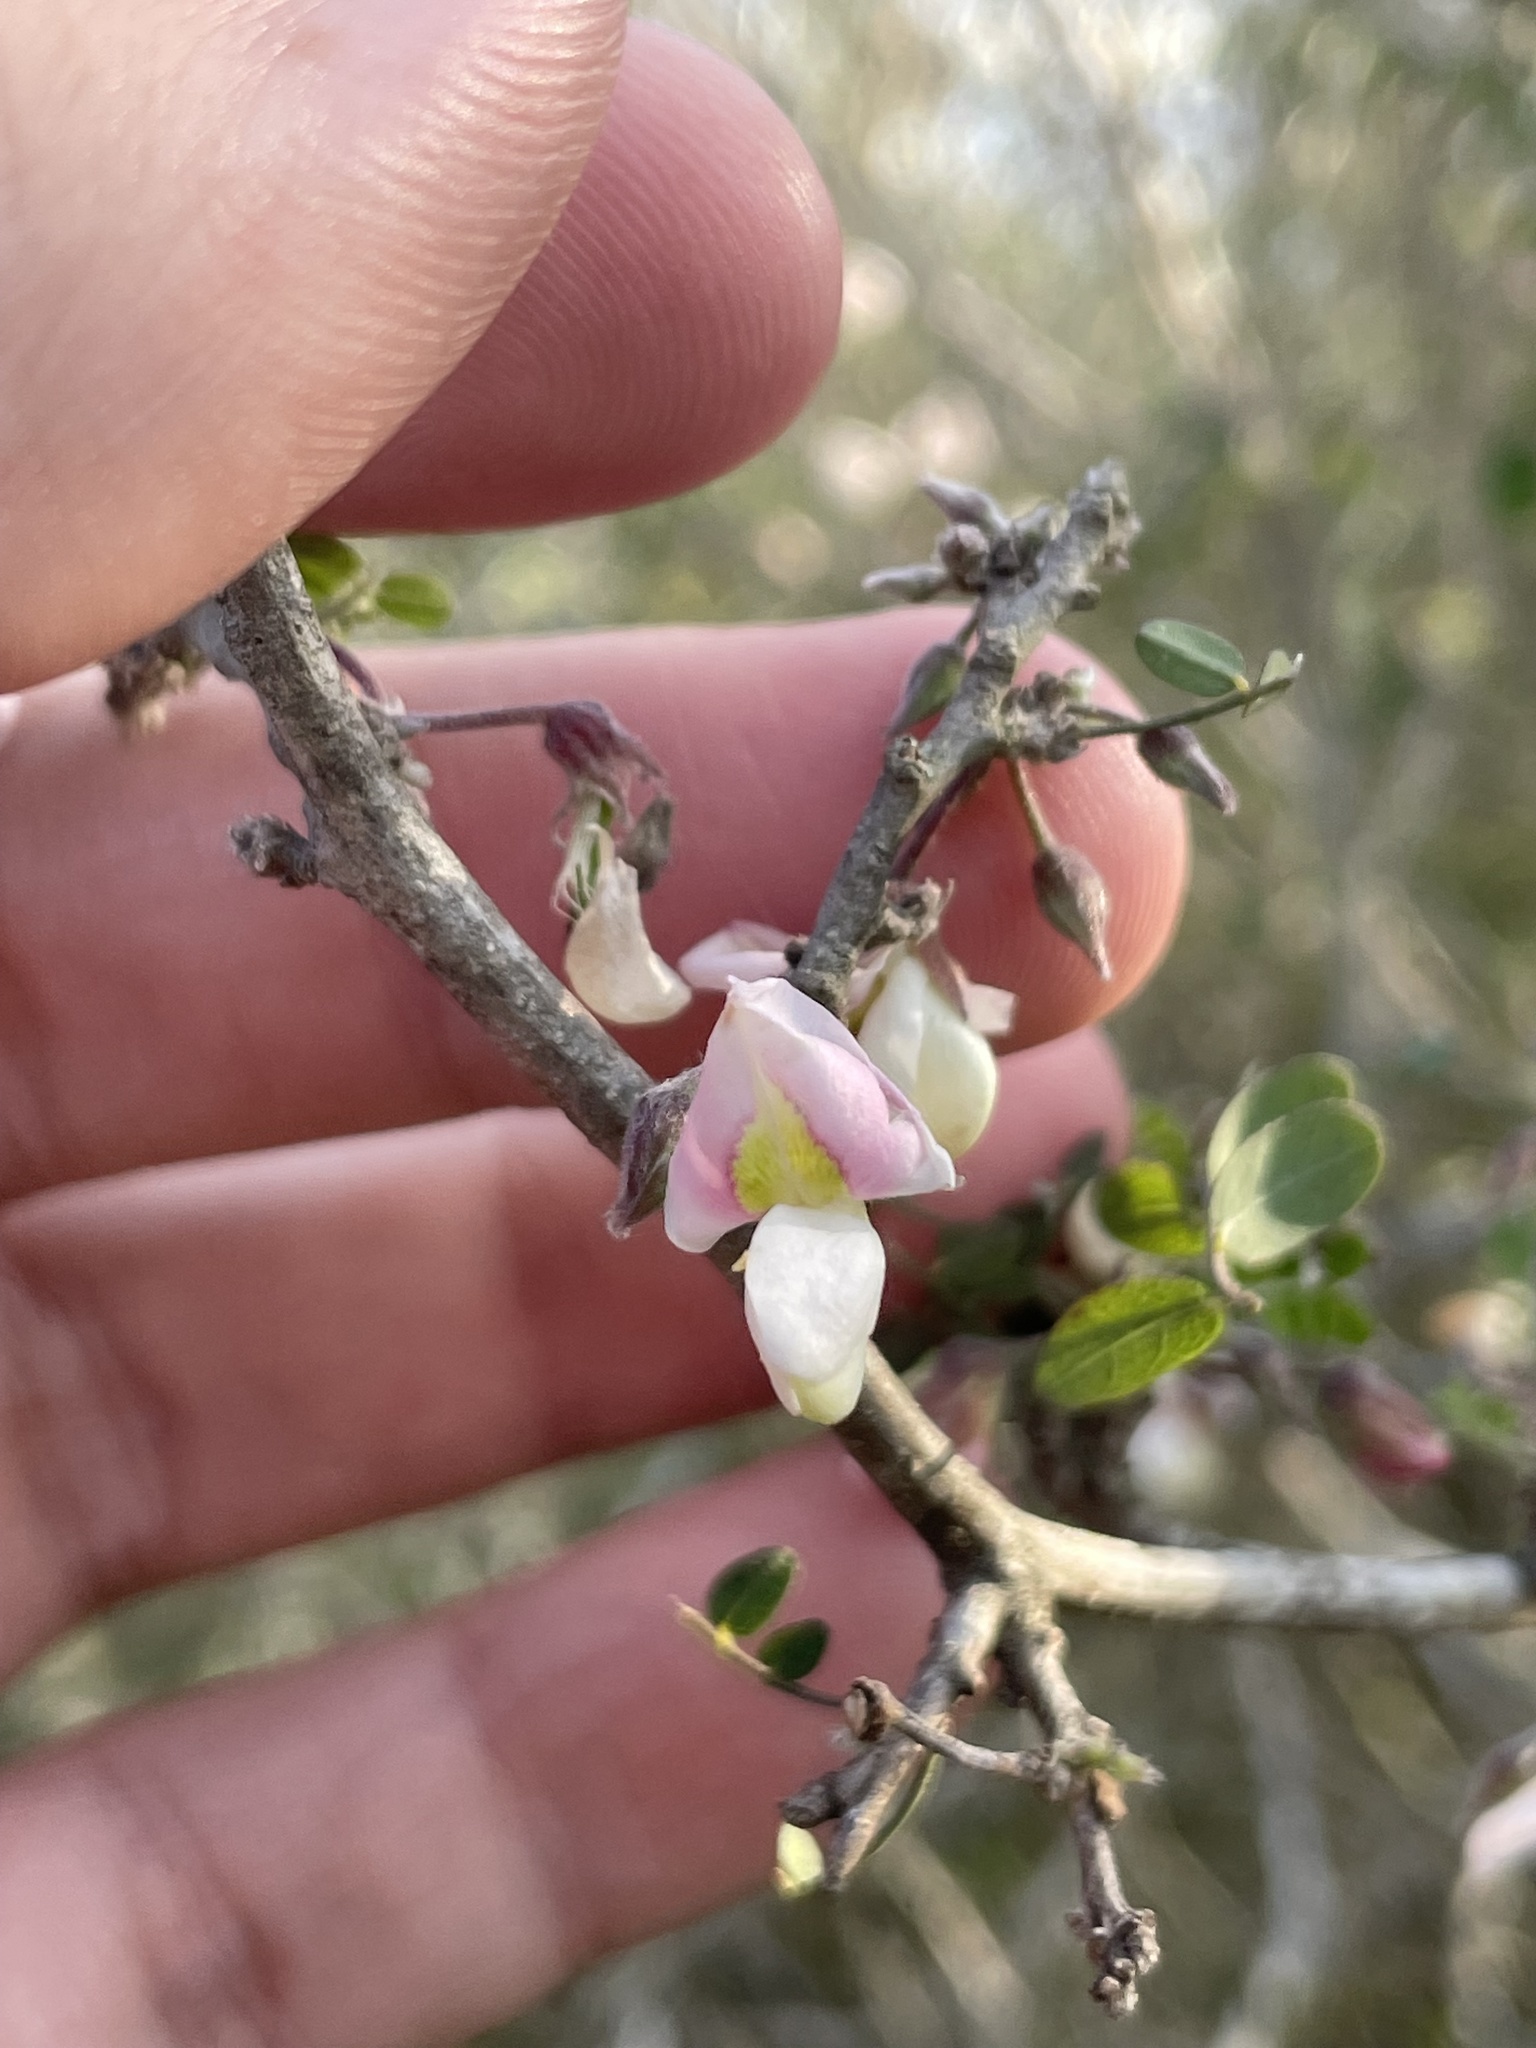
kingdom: Plantae
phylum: Tracheophyta
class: Magnoliopsida
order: Fabales
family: Fabaceae
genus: Coursetia
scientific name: Coursetia axillaris
